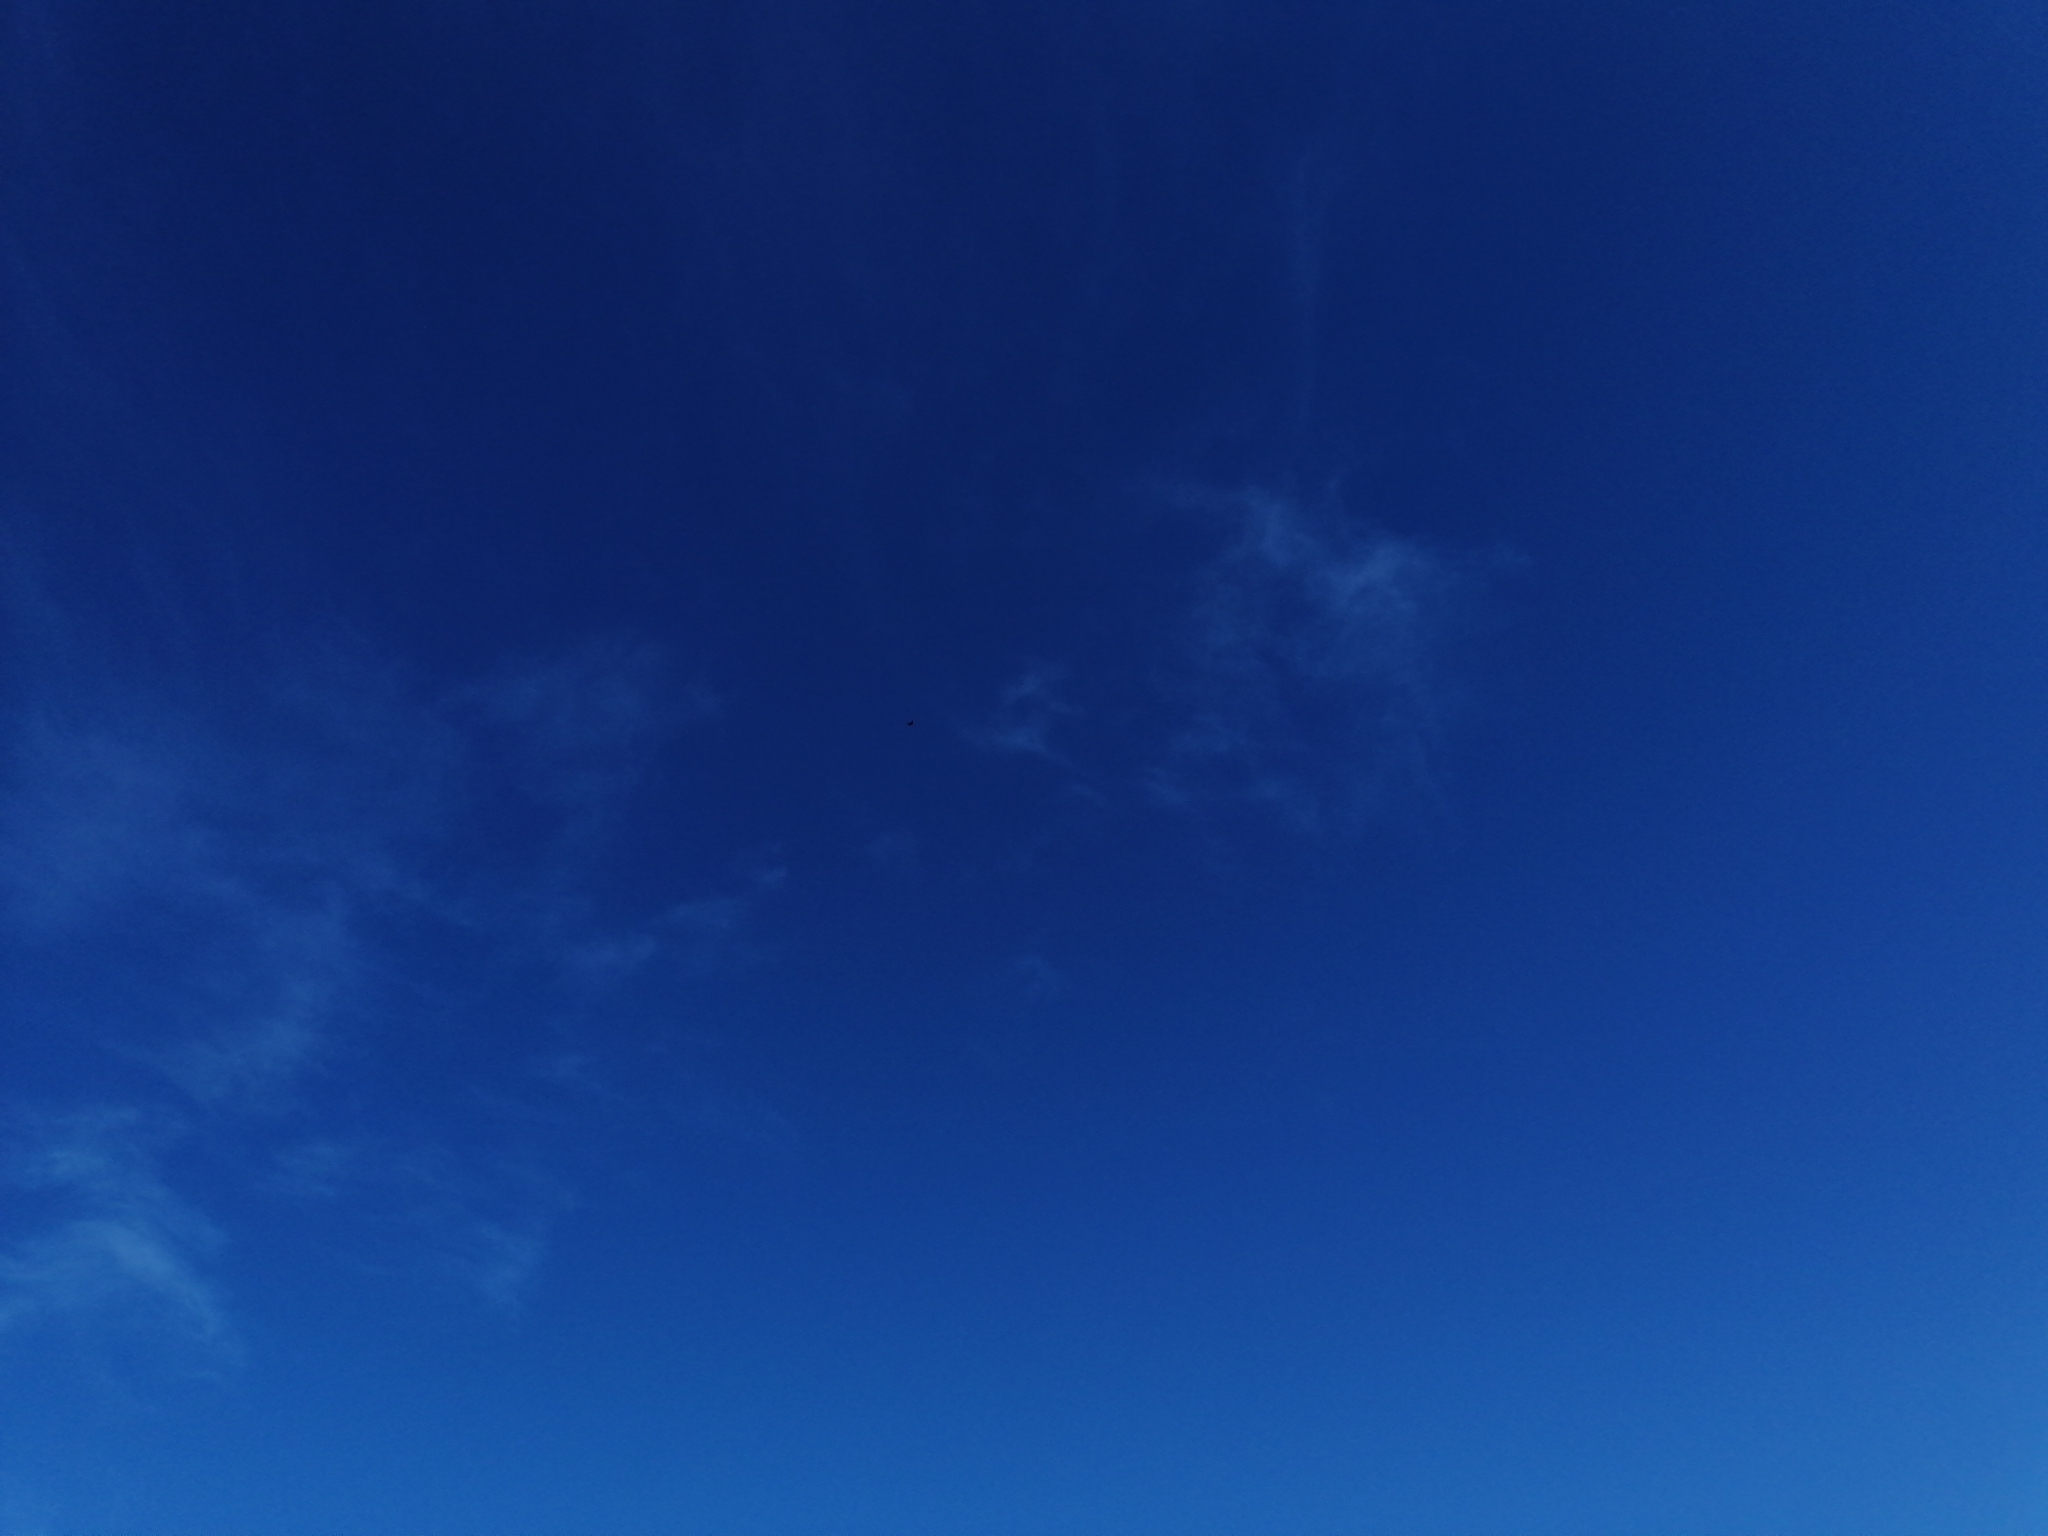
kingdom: Animalia
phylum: Chordata
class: Aves
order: Falconiformes
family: Falconidae
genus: Falco
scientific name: Falco novaeseelandiae
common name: New zealand falcon
